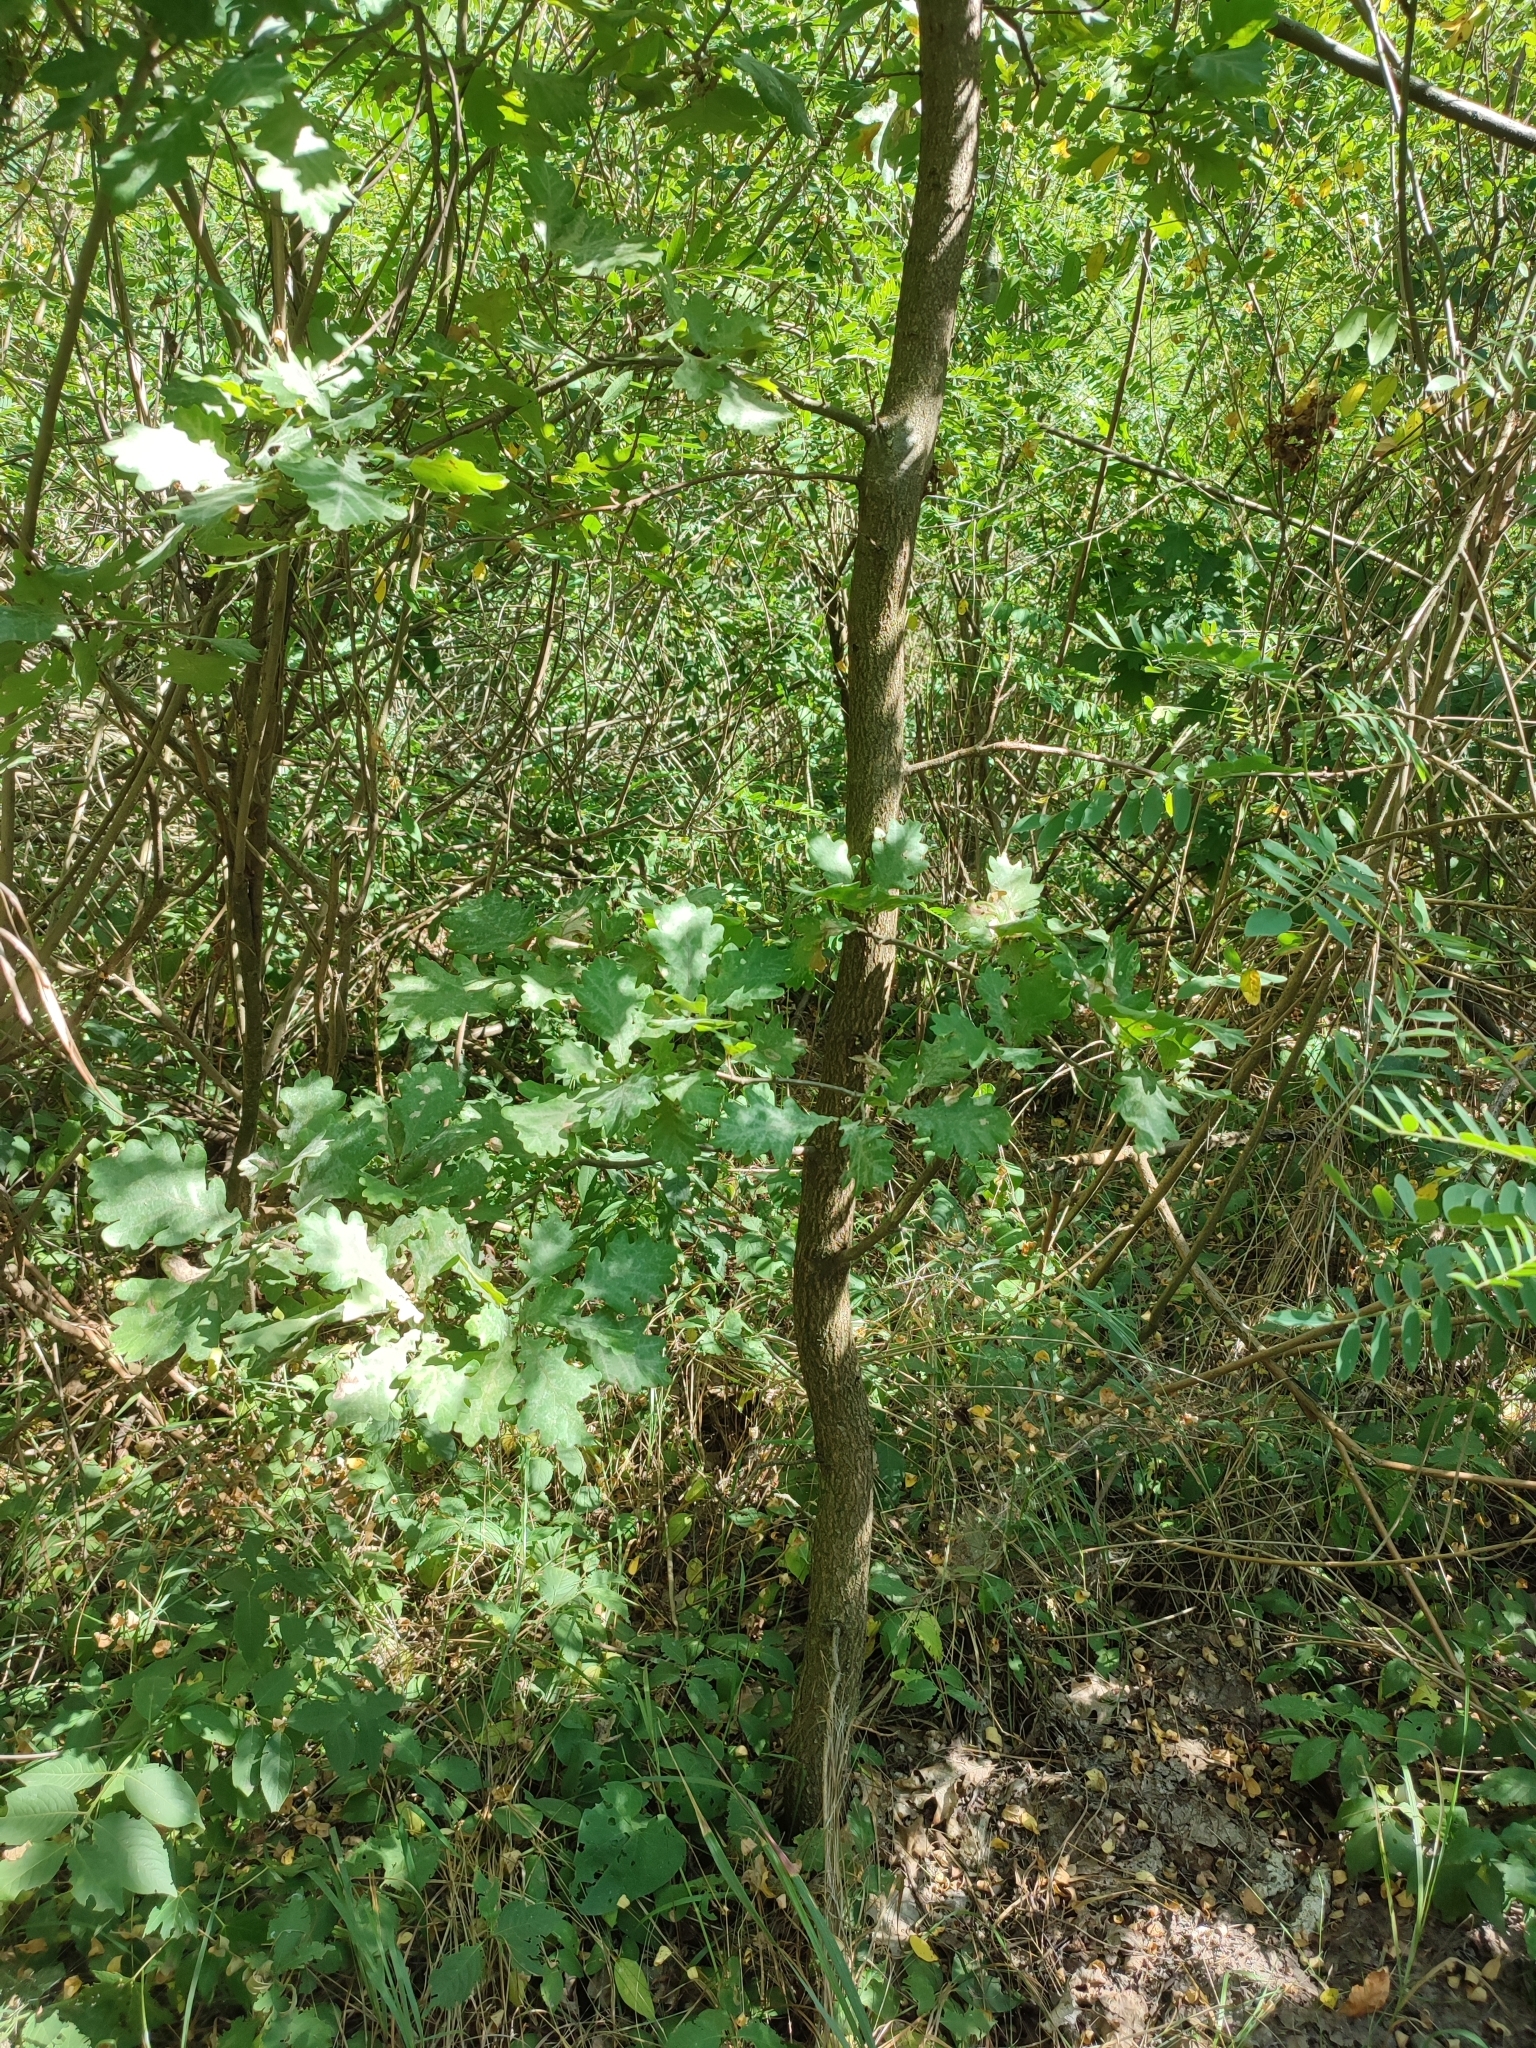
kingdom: Plantae
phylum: Tracheophyta
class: Magnoliopsida
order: Fagales
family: Fagaceae
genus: Quercus
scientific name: Quercus robur
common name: Pedunculate oak
